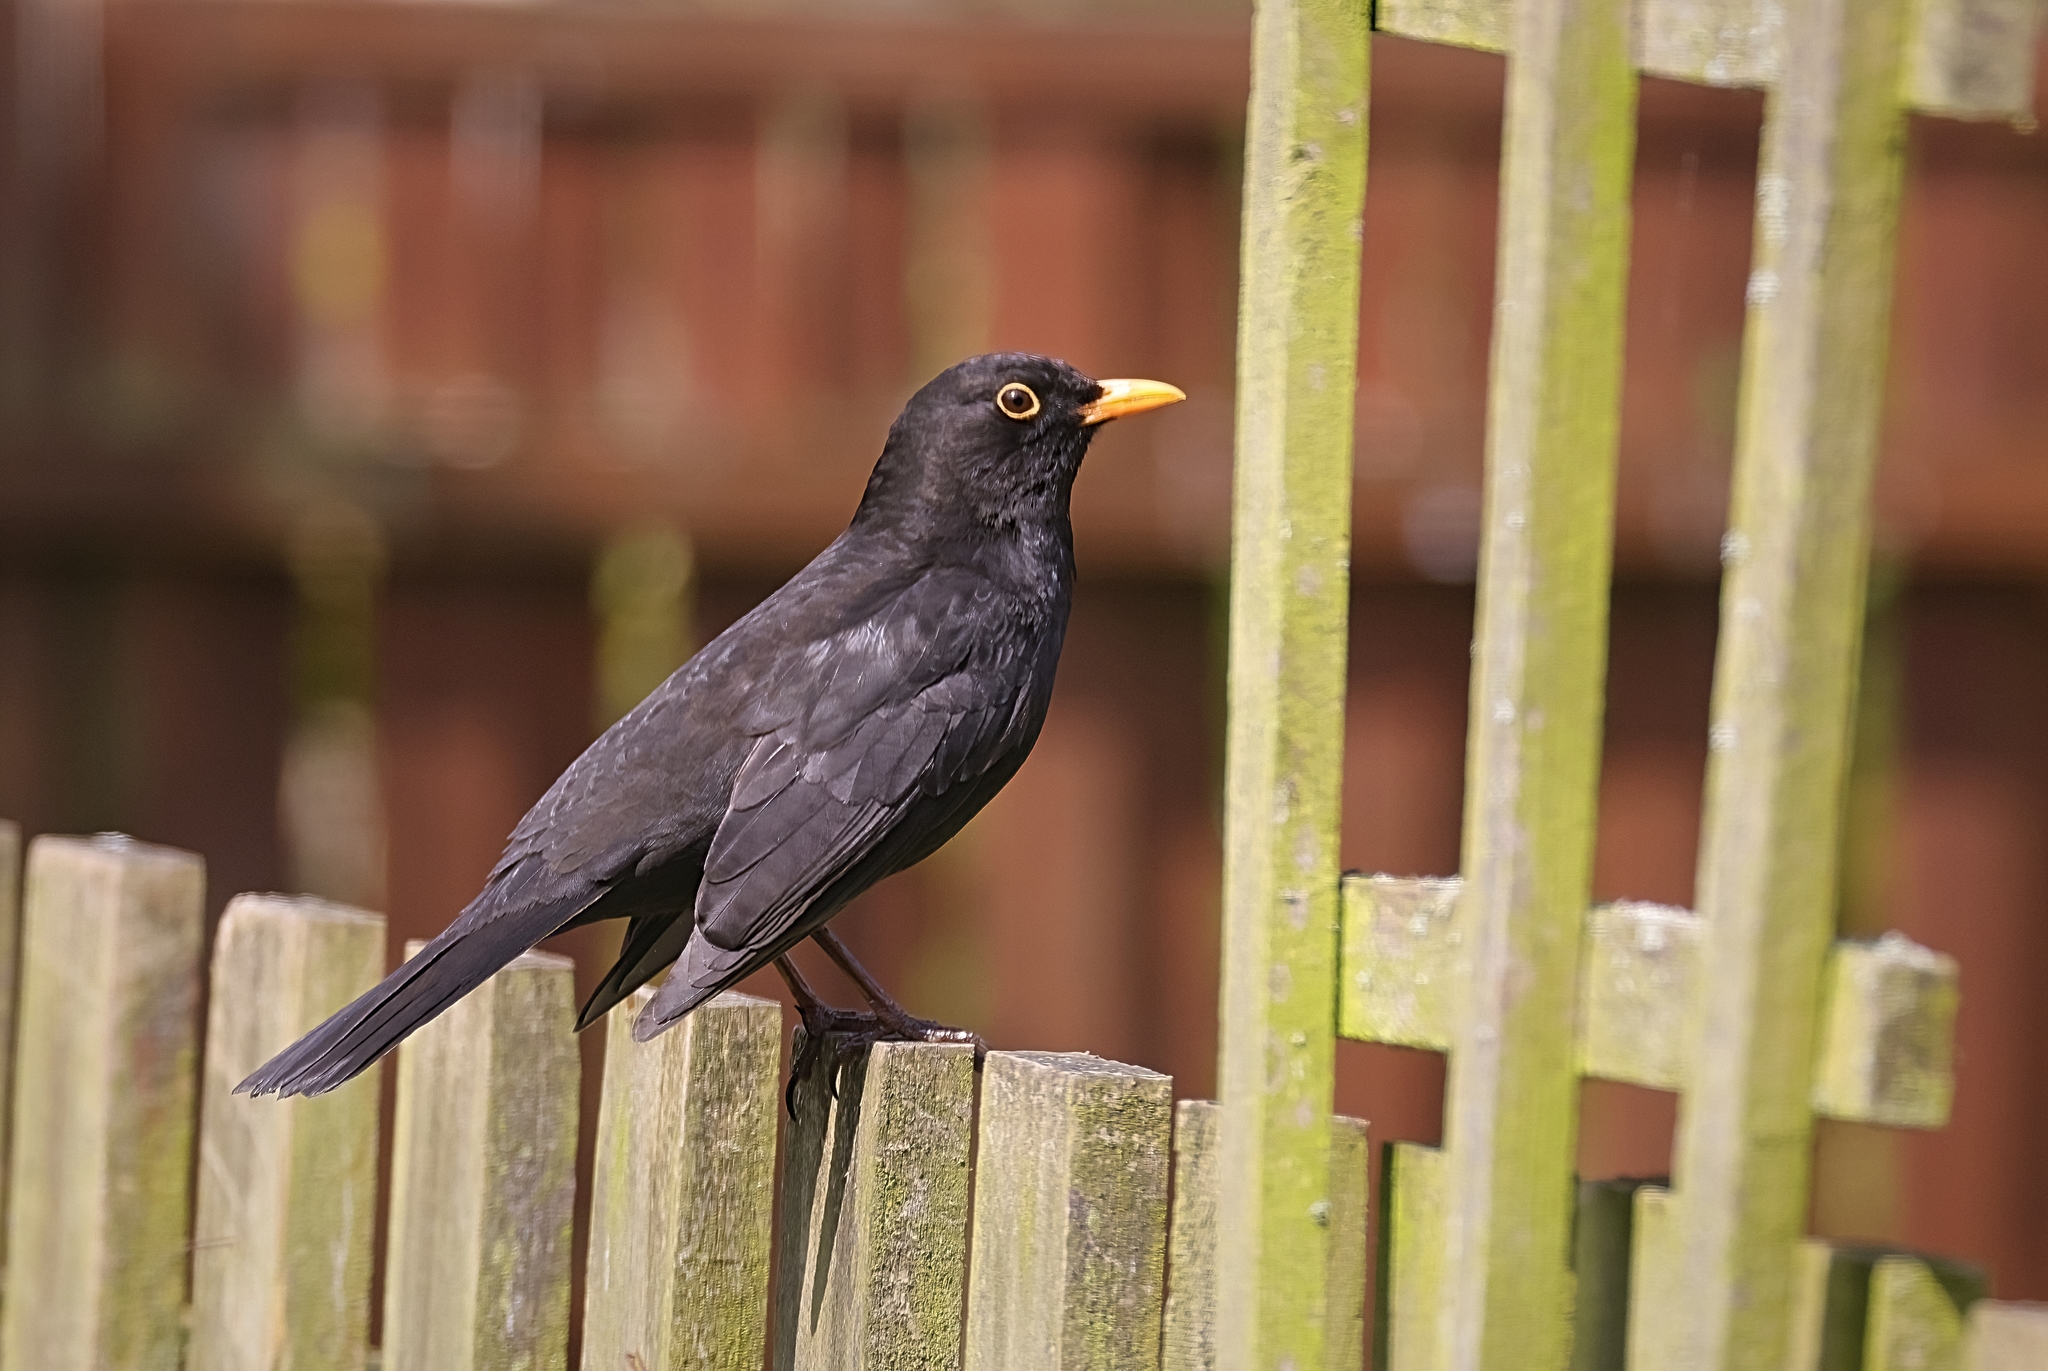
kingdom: Animalia
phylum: Chordata
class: Aves
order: Passeriformes
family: Turdidae
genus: Turdus
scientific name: Turdus merula
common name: Common blackbird
